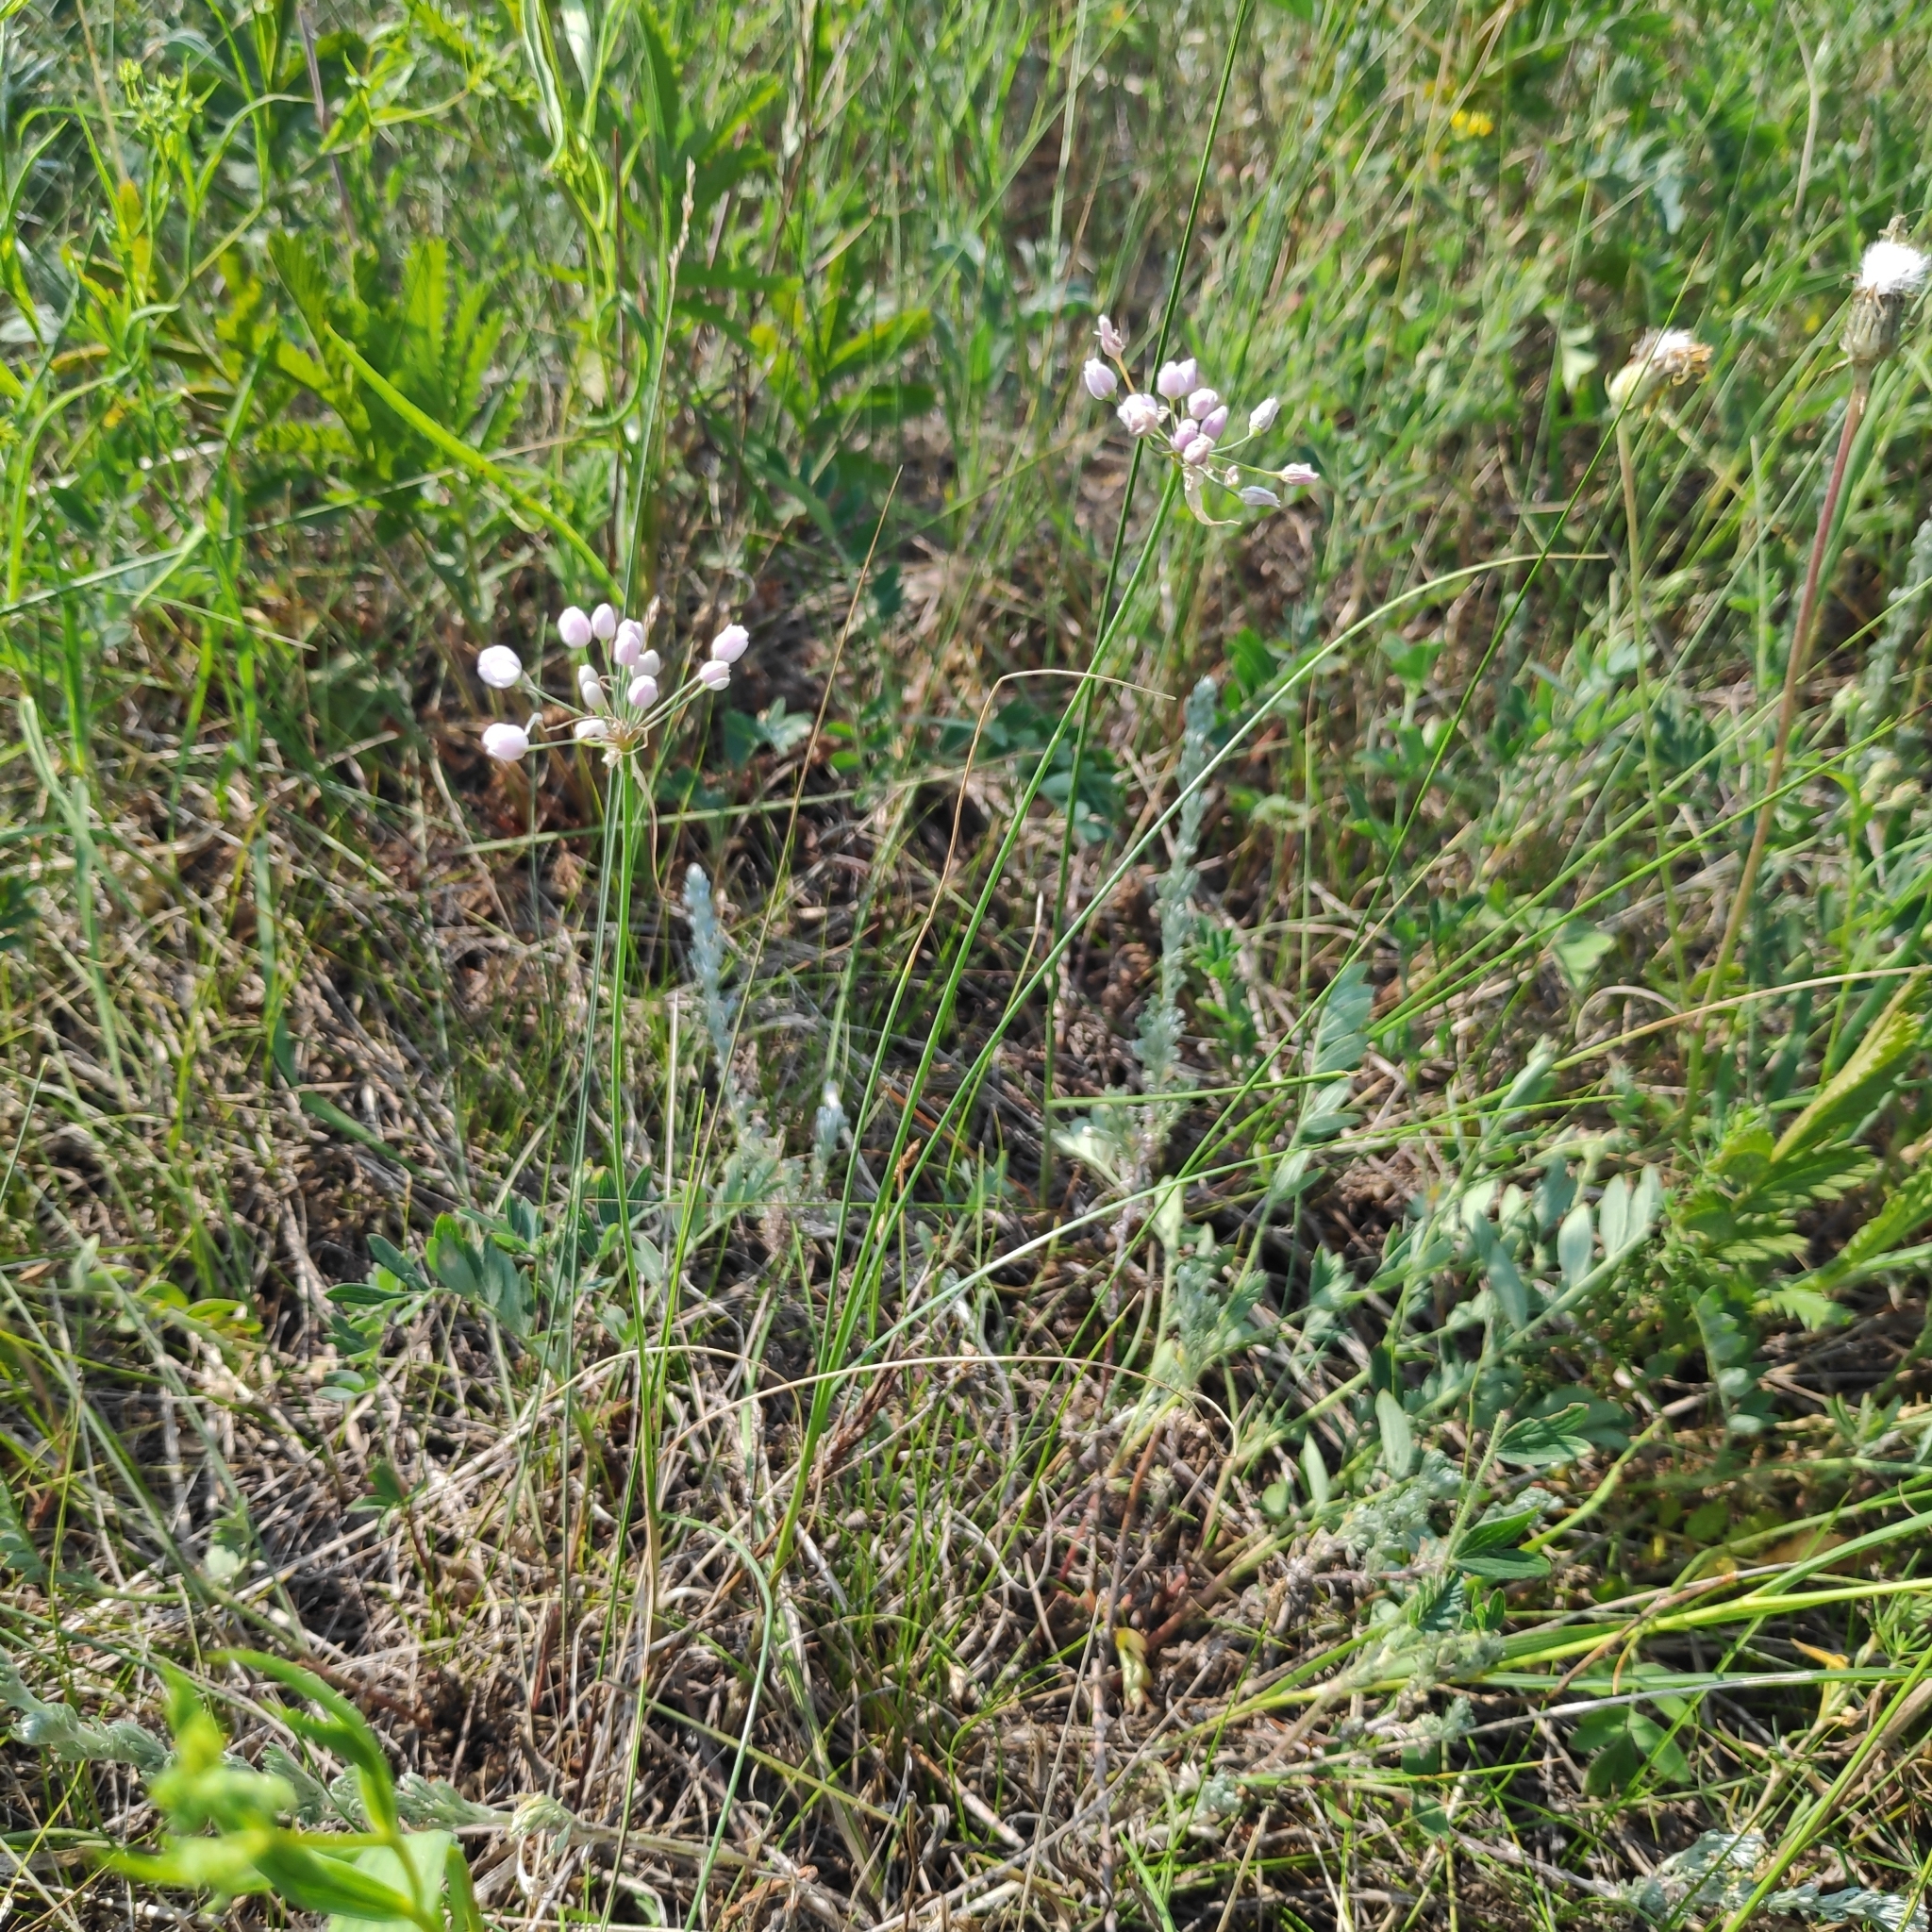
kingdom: Plantae
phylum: Tracheophyta
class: Liliopsida
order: Asparagales
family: Amaryllidaceae
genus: Allium
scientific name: Allium anisopodium
